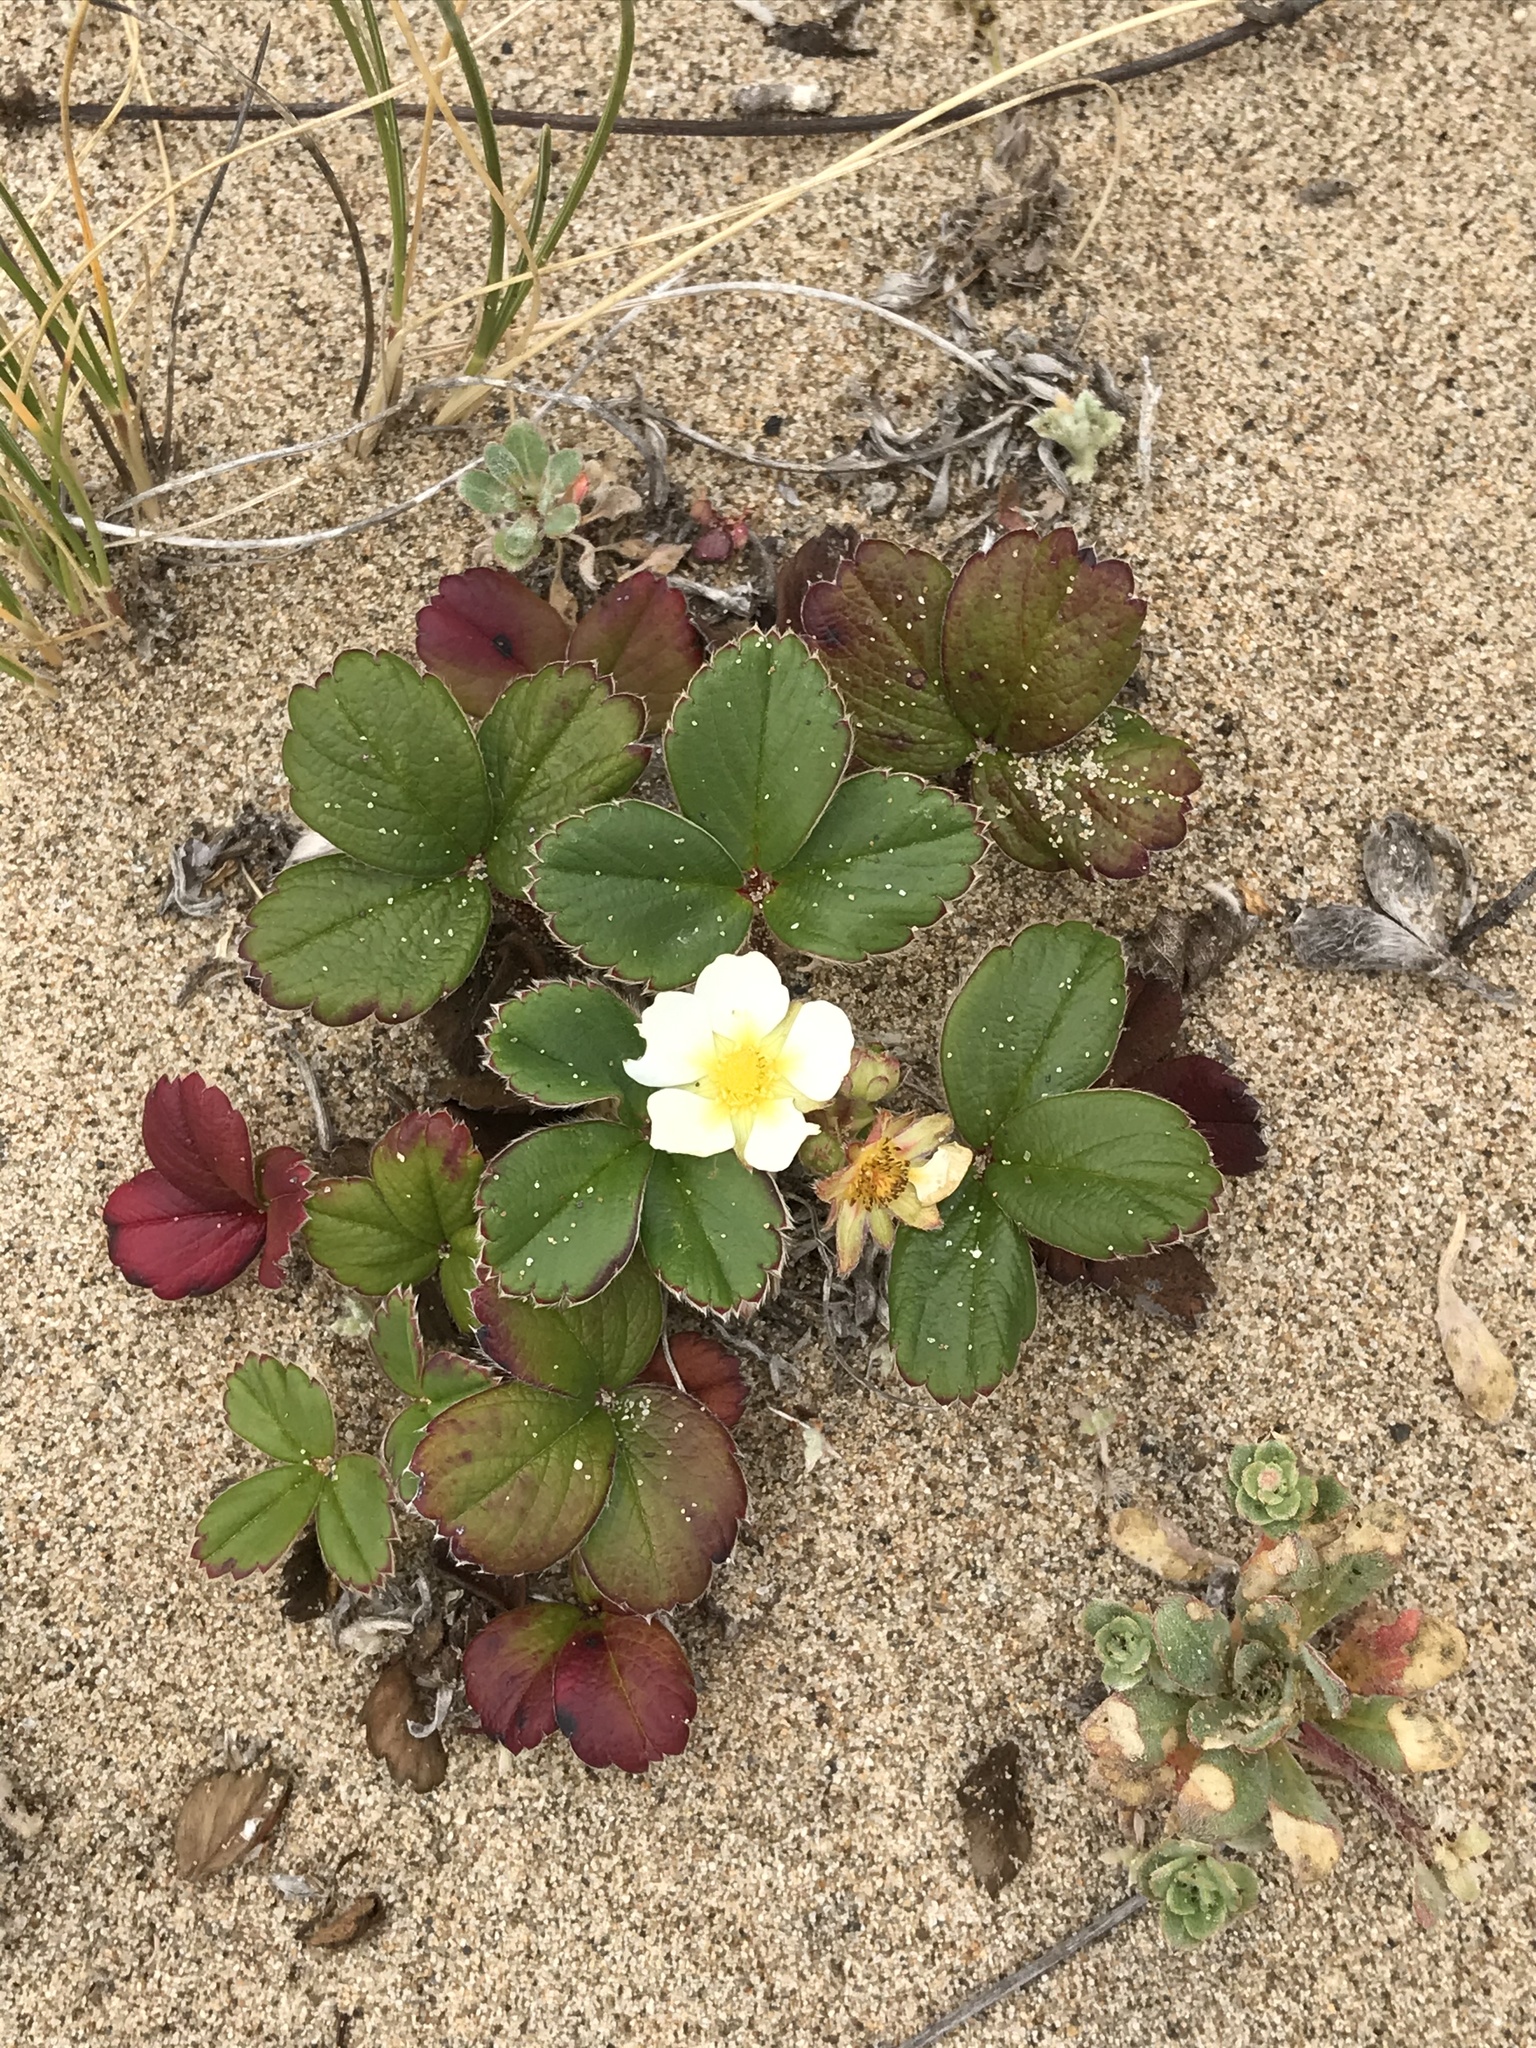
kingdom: Plantae
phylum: Tracheophyta
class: Magnoliopsida
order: Rosales
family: Rosaceae
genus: Fragaria
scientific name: Fragaria chiloensis
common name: Beach strawberry
